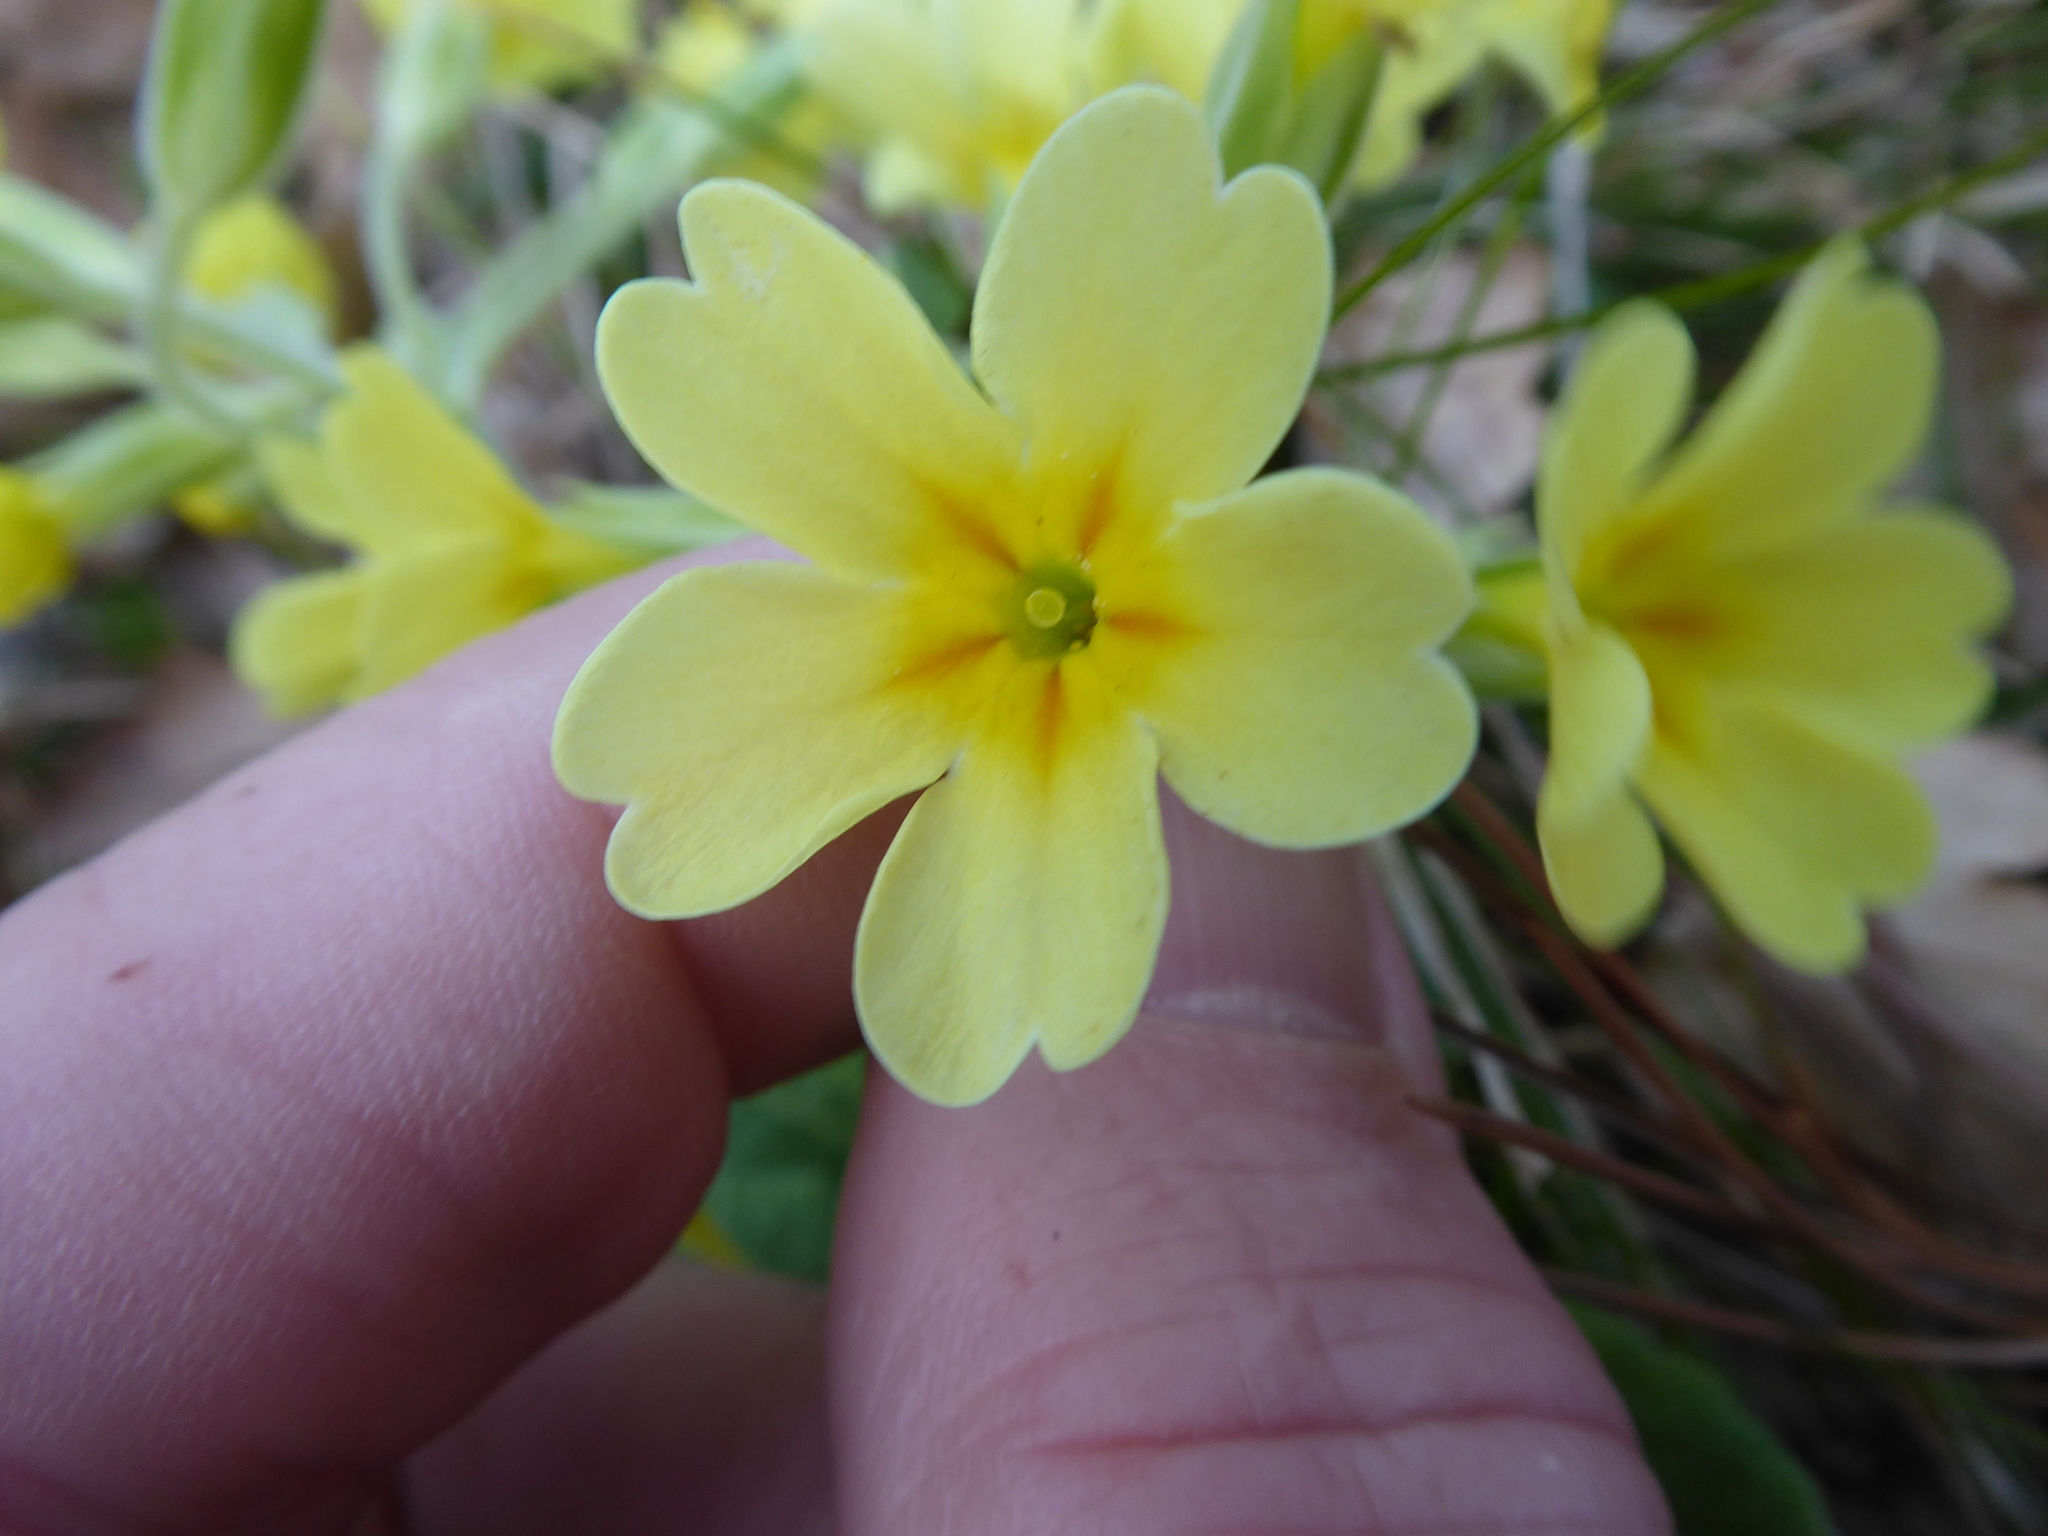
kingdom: Plantae
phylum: Tracheophyta
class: Magnoliopsida
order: Ericales
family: Primulaceae
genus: Primula
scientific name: Primula polyantha
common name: False oxlip
